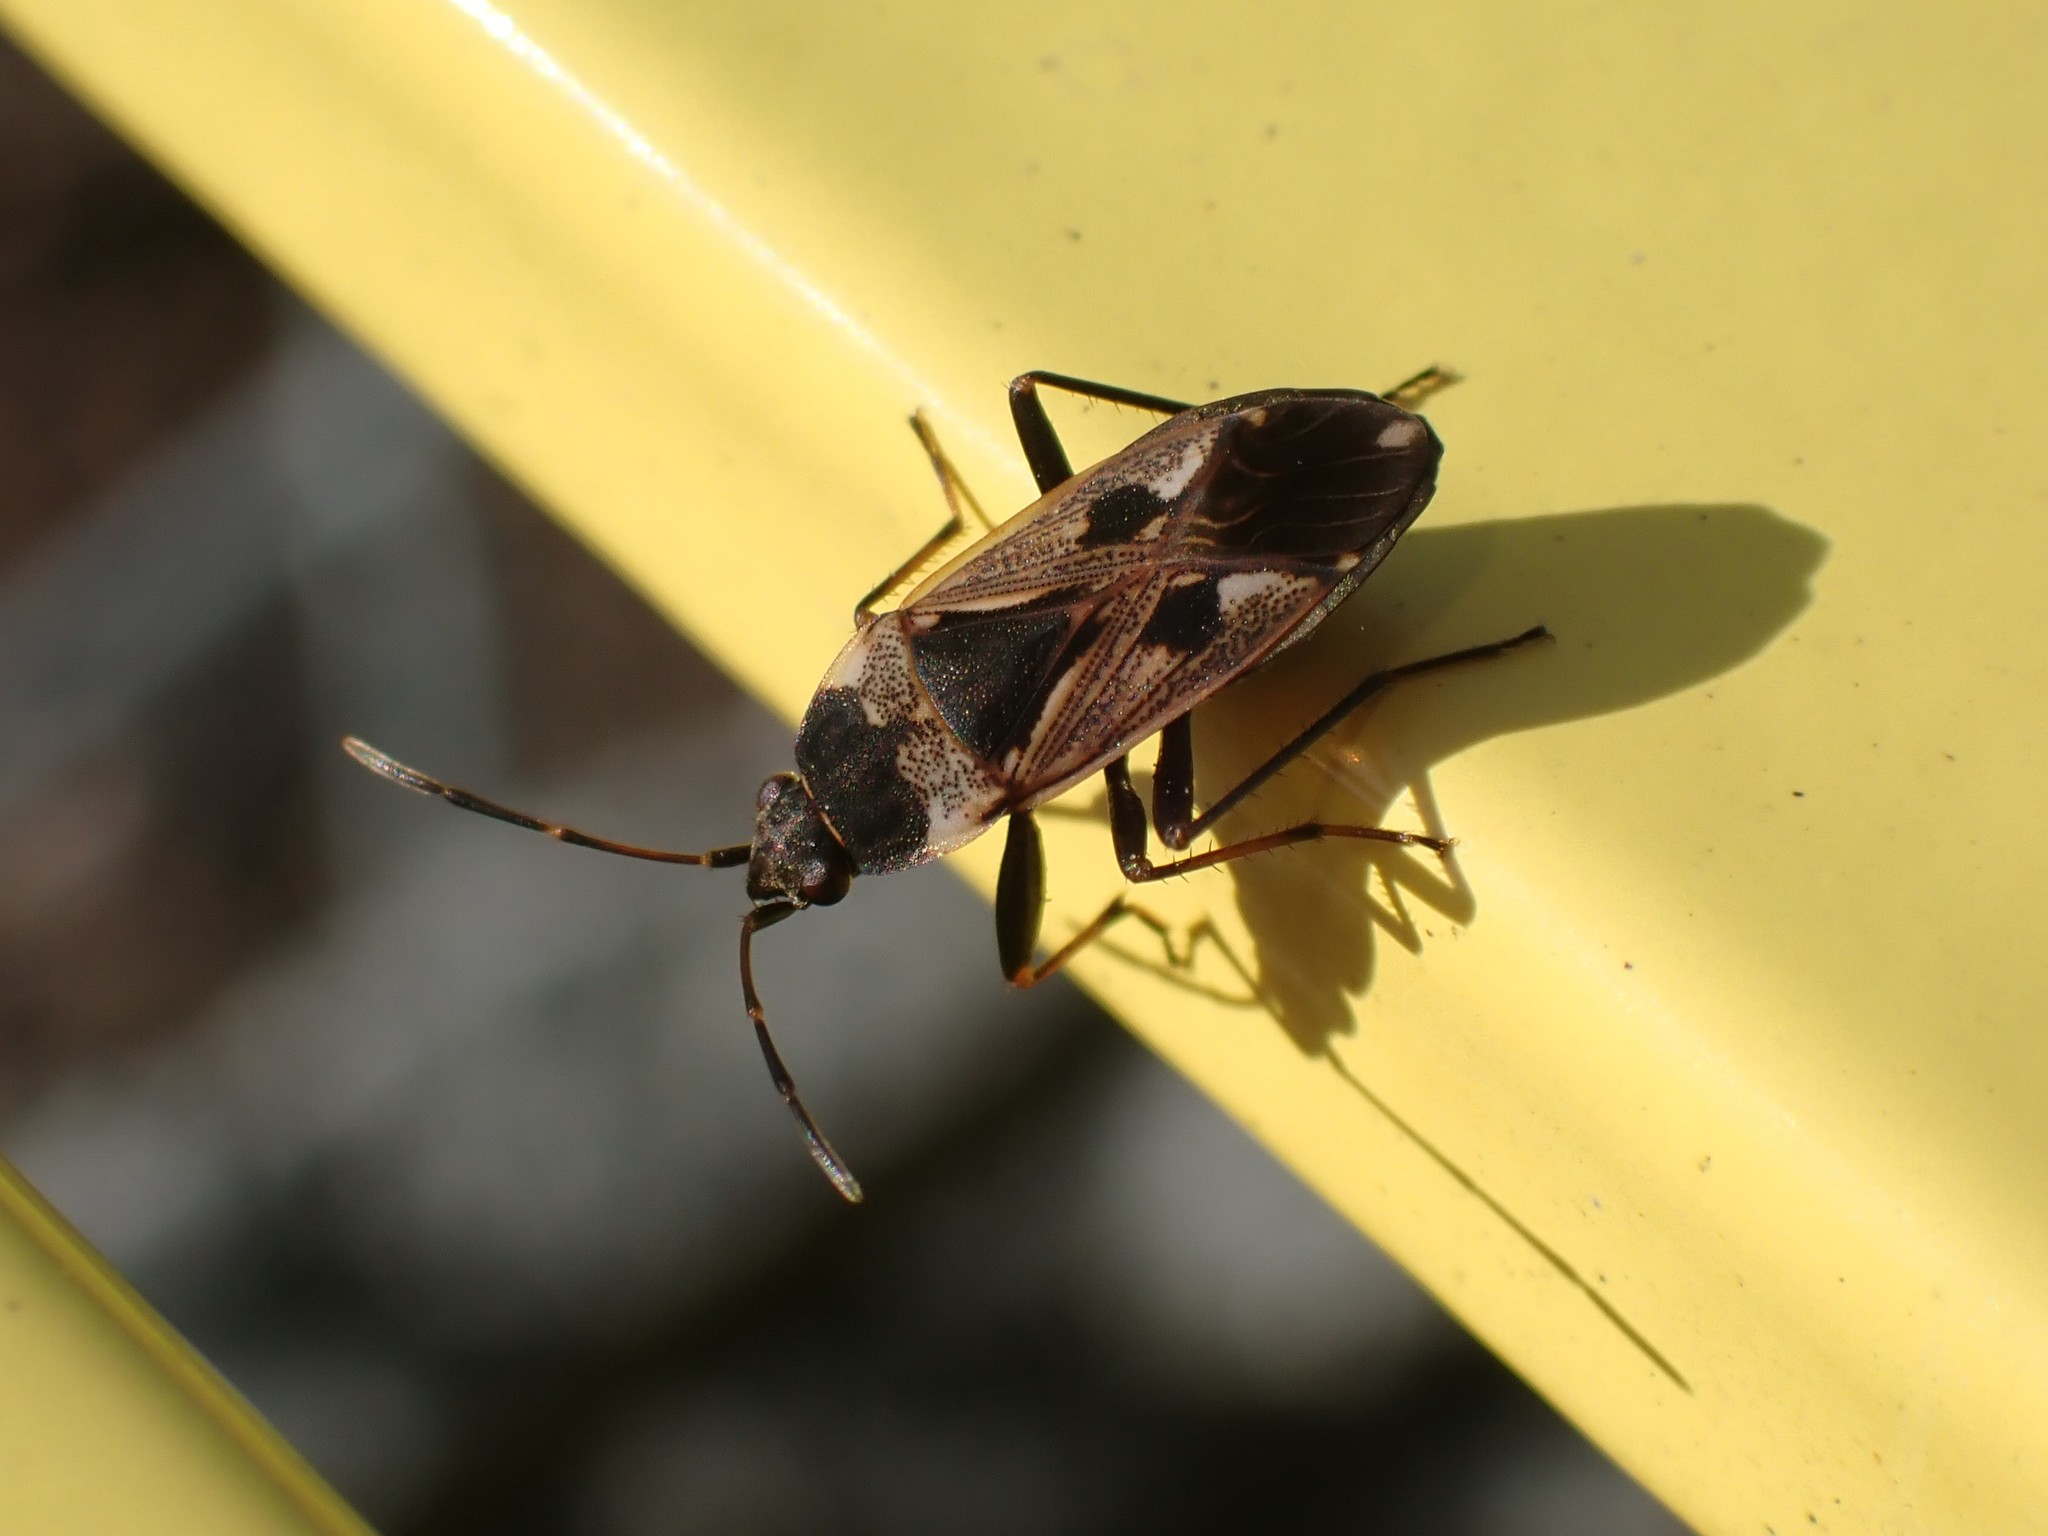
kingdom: Animalia
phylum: Arthropoda
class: Insecta
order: Hemiptera
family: Rhyparochromidae
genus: Rhyparochromus
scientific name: Rhyparochromus vulgaris
